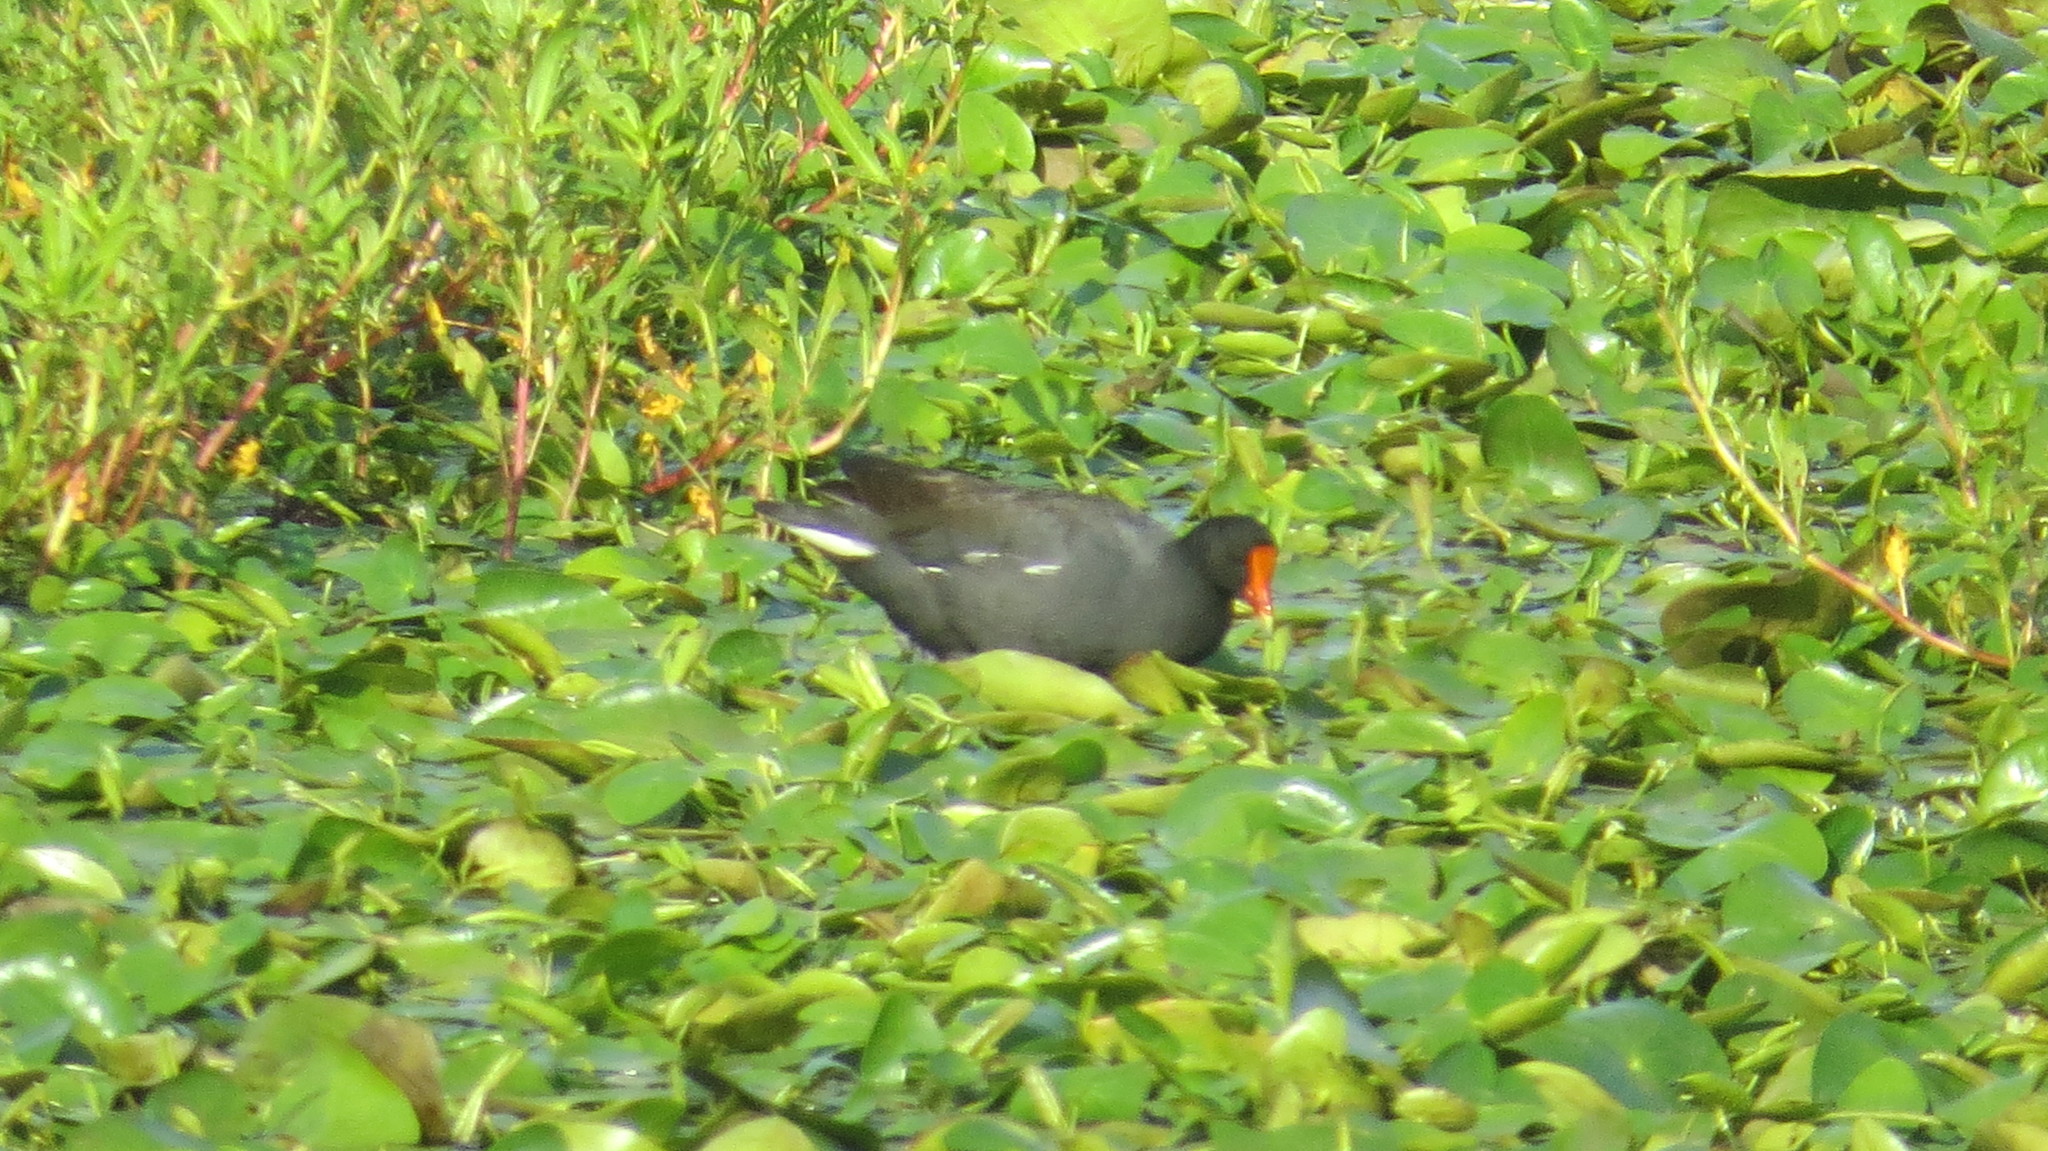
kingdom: Animalia
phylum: Chordata
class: Aves
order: Gruiformes
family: Rallidae
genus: Gallinula
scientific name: Gallinula chloropus
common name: Common moorhen
